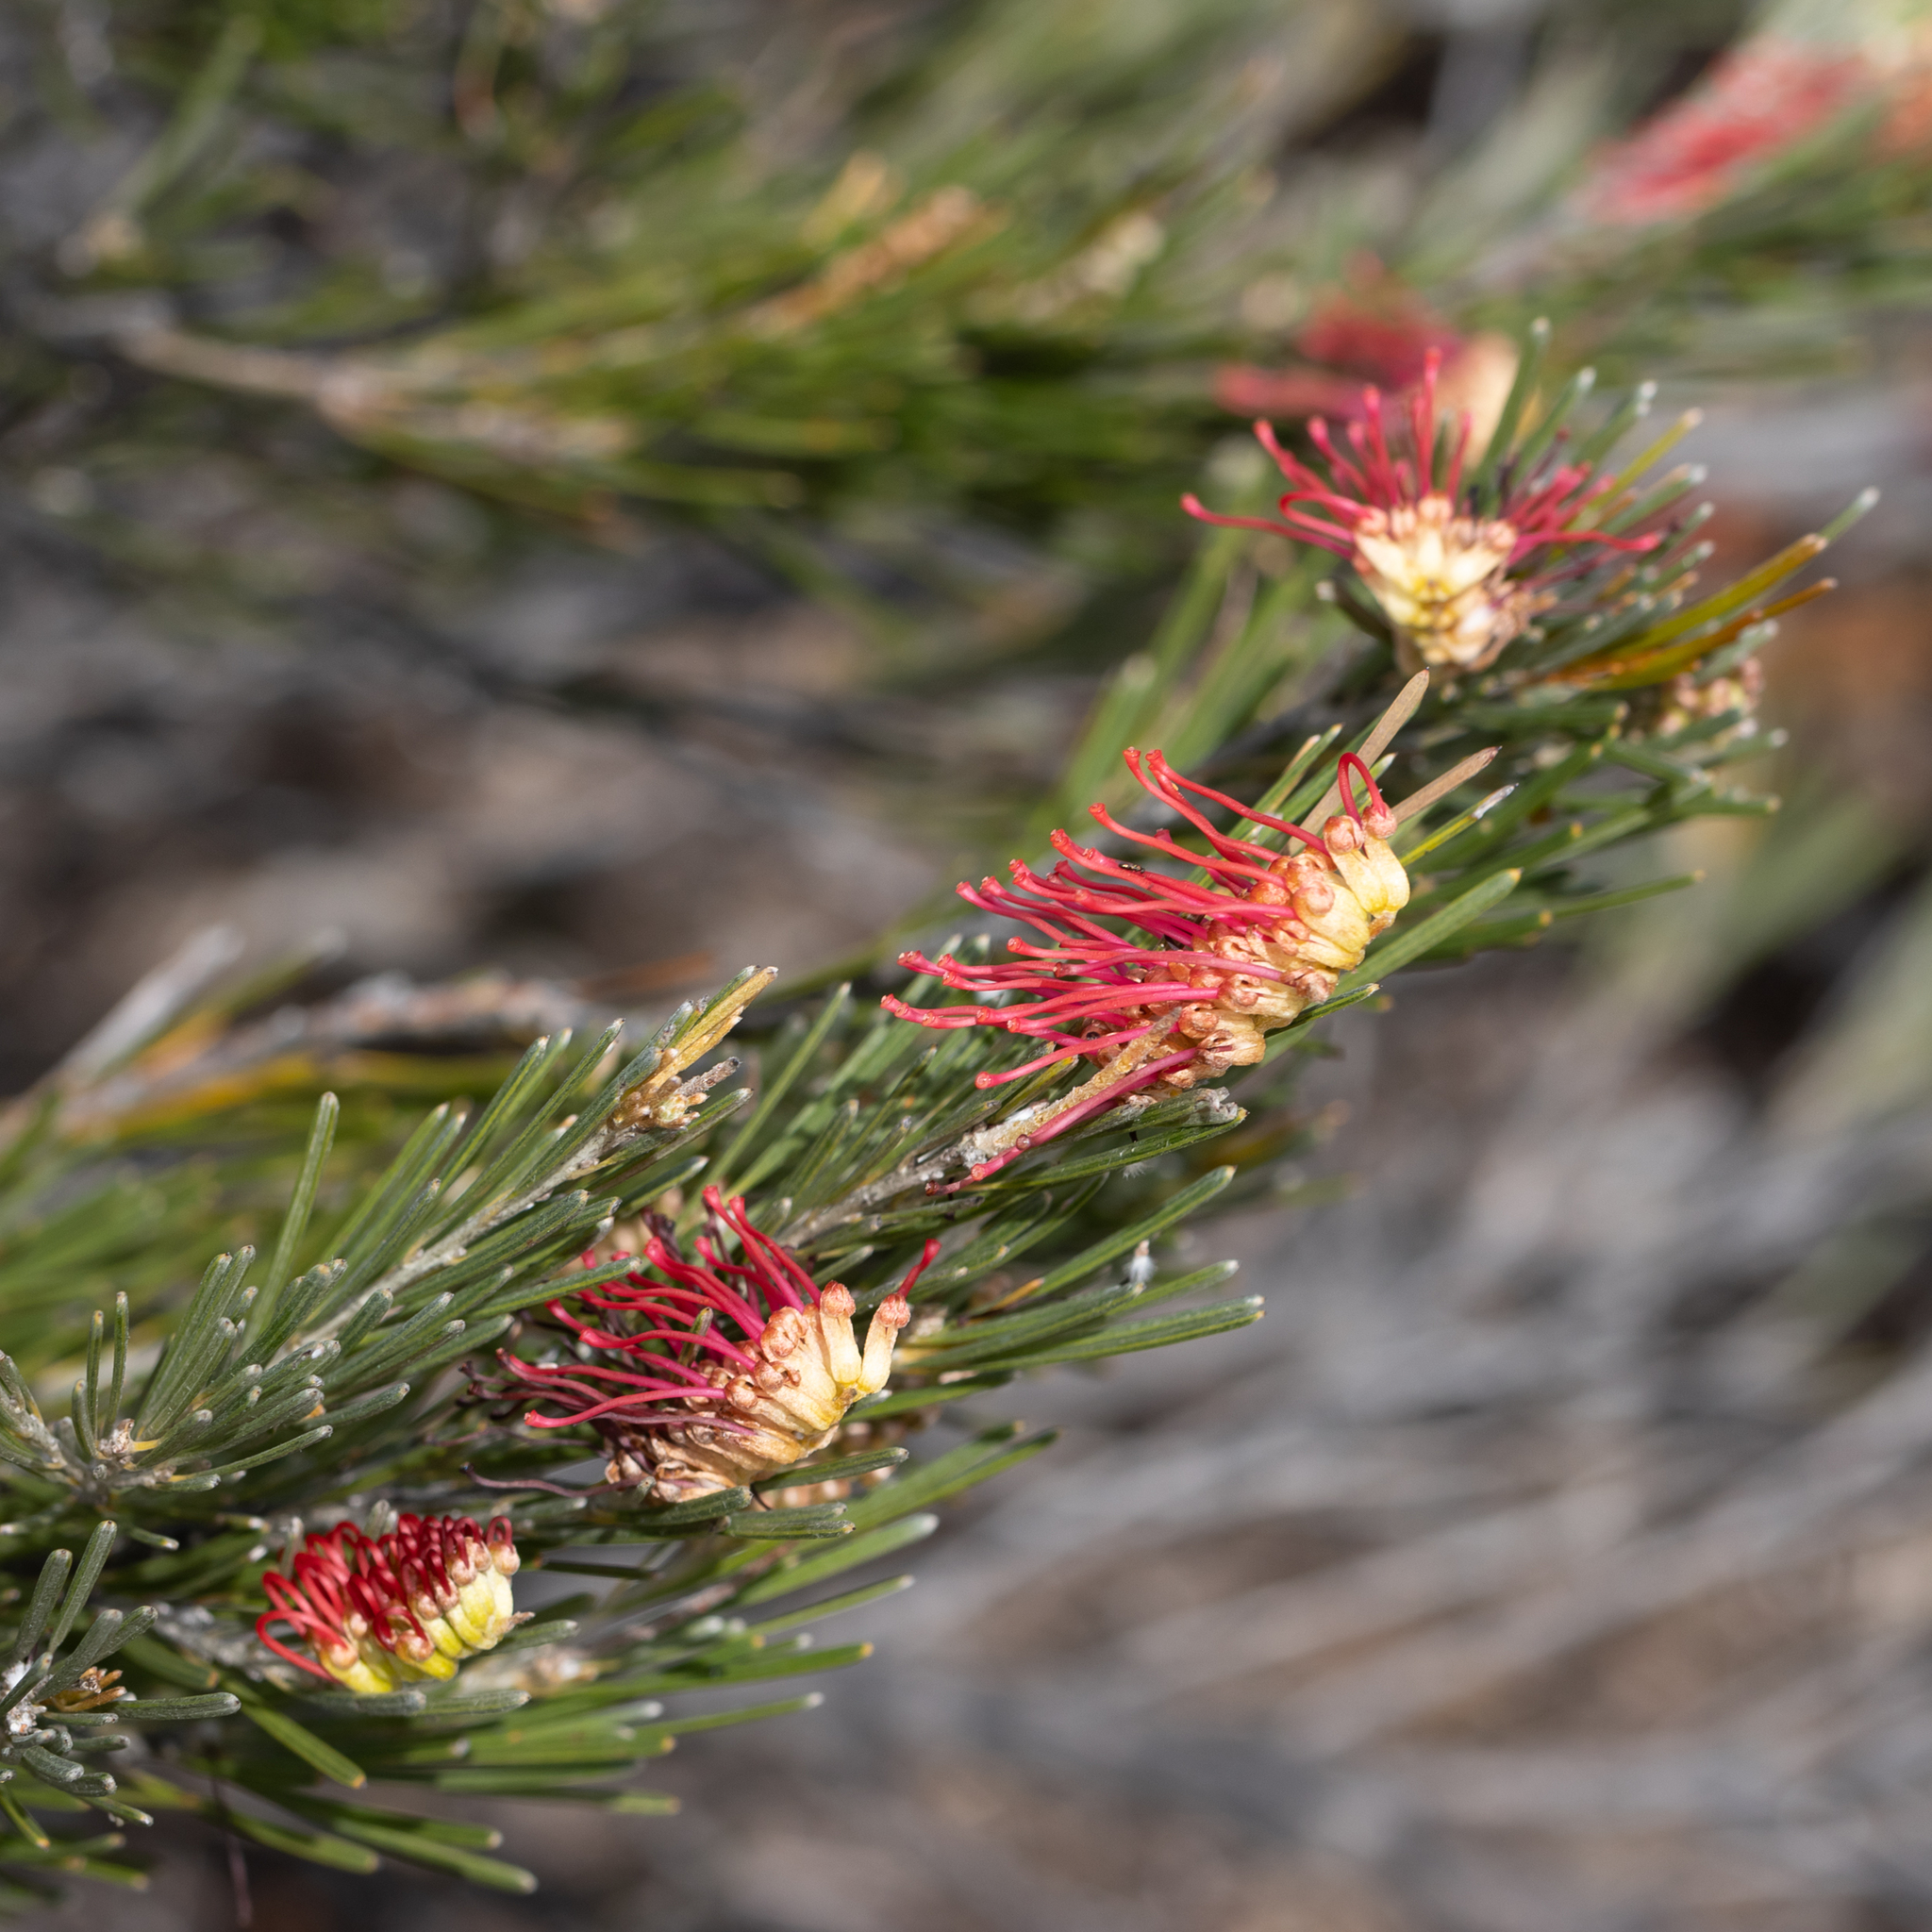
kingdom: Plantae
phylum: Tracheophyta
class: Magnoliopsida
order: Proteales
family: Proteaceae
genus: Grevillea
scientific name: Grevillea hookeriana
